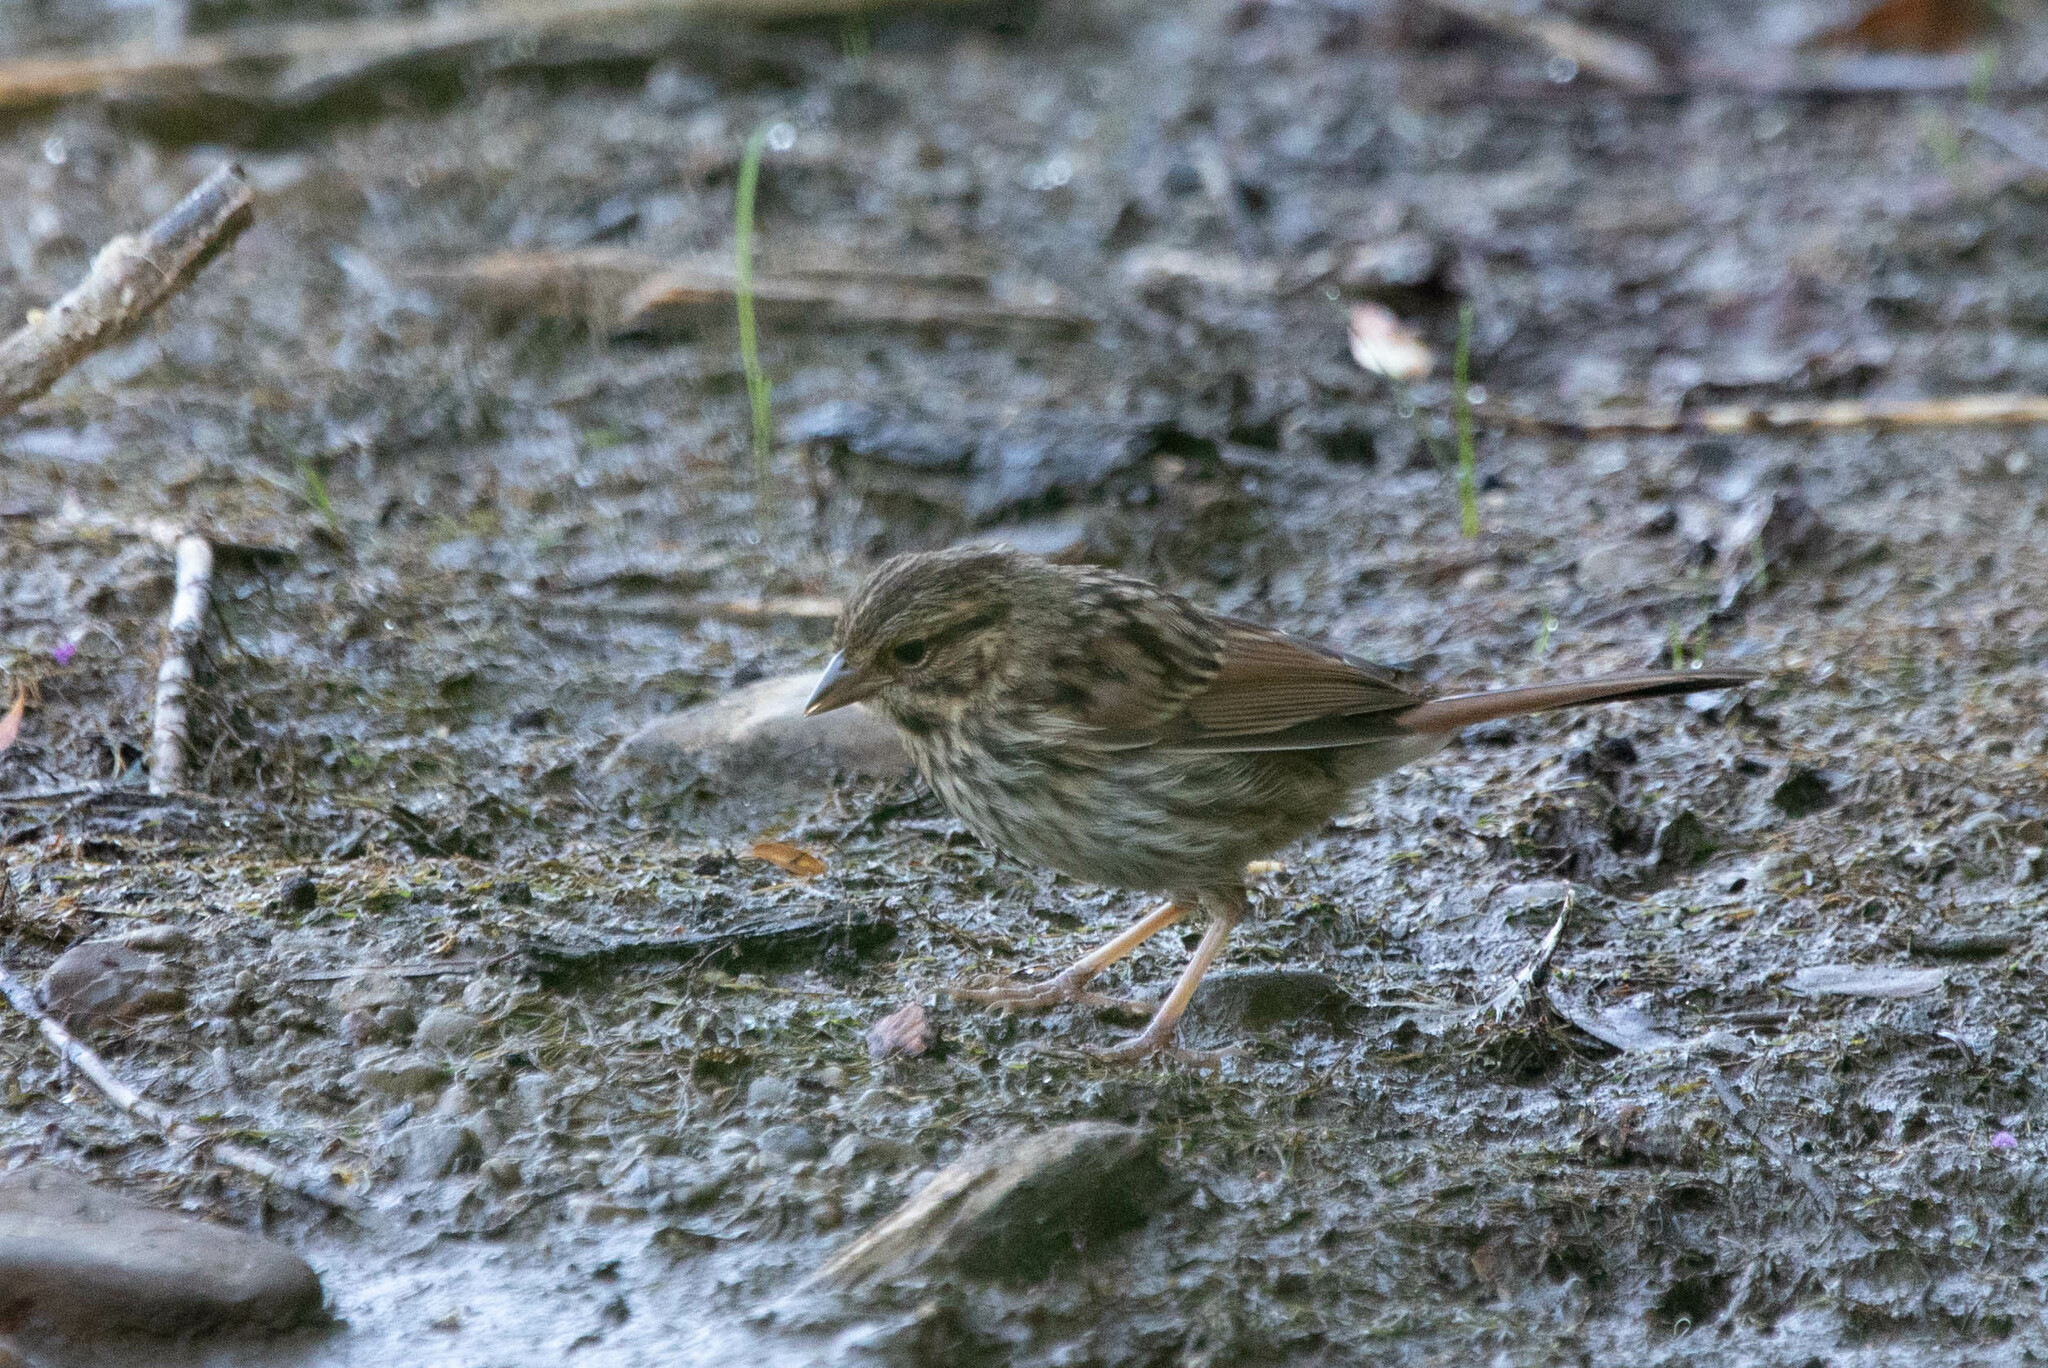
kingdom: Animalia
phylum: Chordata
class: Aves
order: Passeriformes
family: Passerellidae
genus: Melospiza
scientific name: Melospiza melodia
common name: Song sparrow
